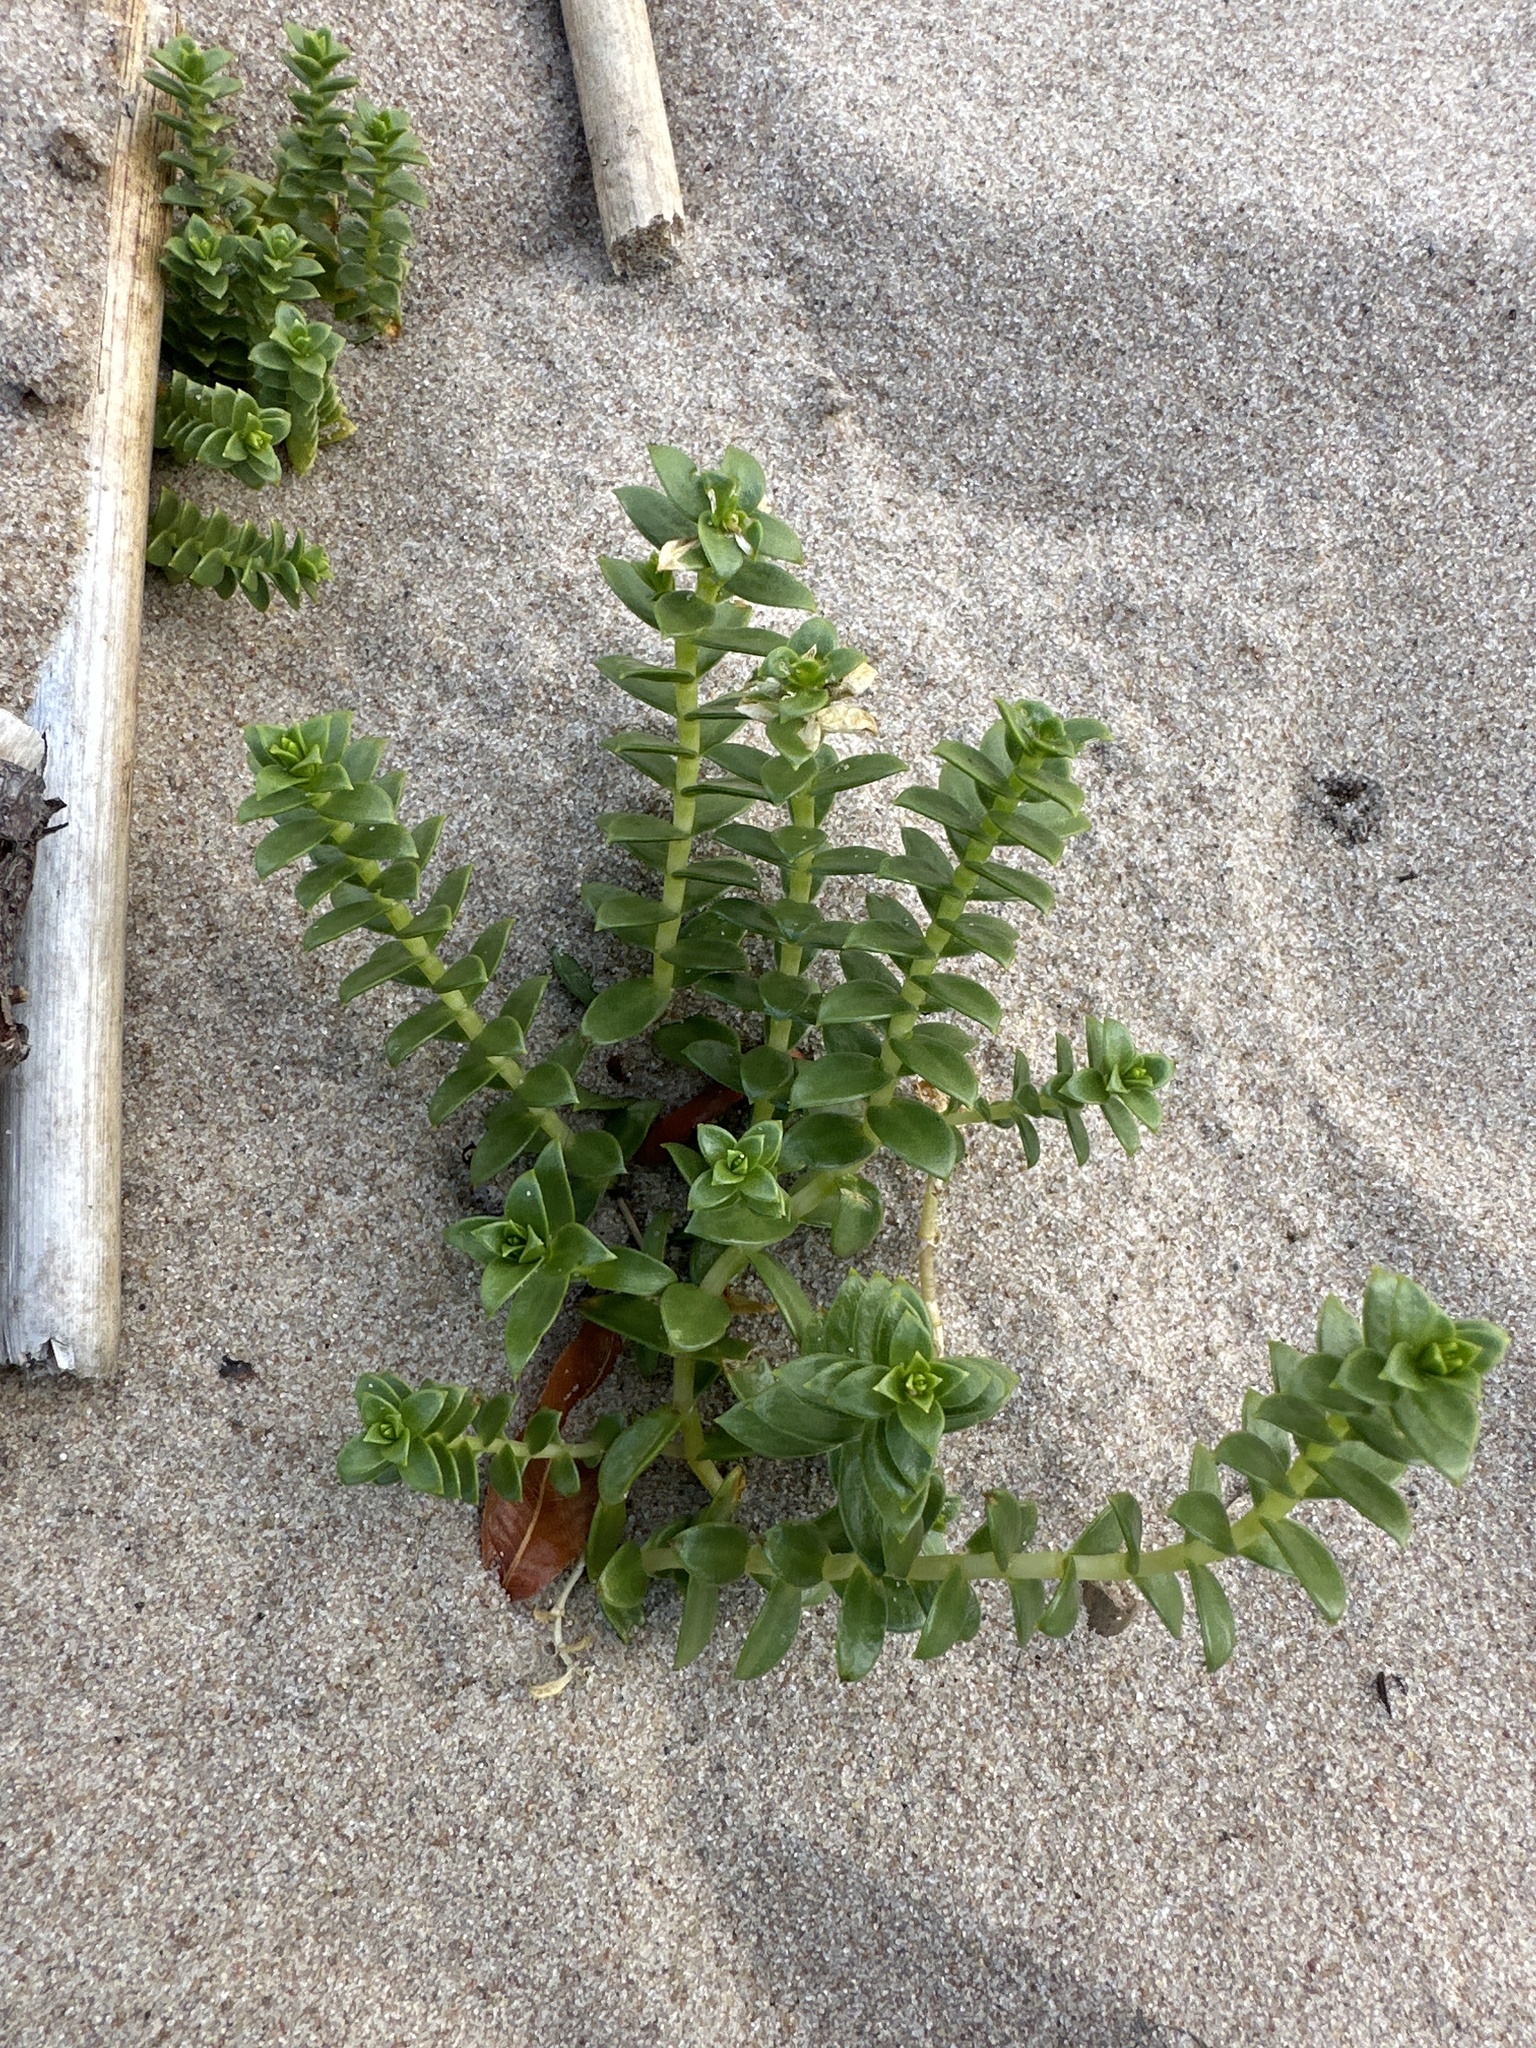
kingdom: Plantae
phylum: Tracheophyta
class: Magnoliopsida
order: Caryophyllales
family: Caryophyllaceae
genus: Honckenya
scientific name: Honckenya peploides
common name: Sea sandwort
